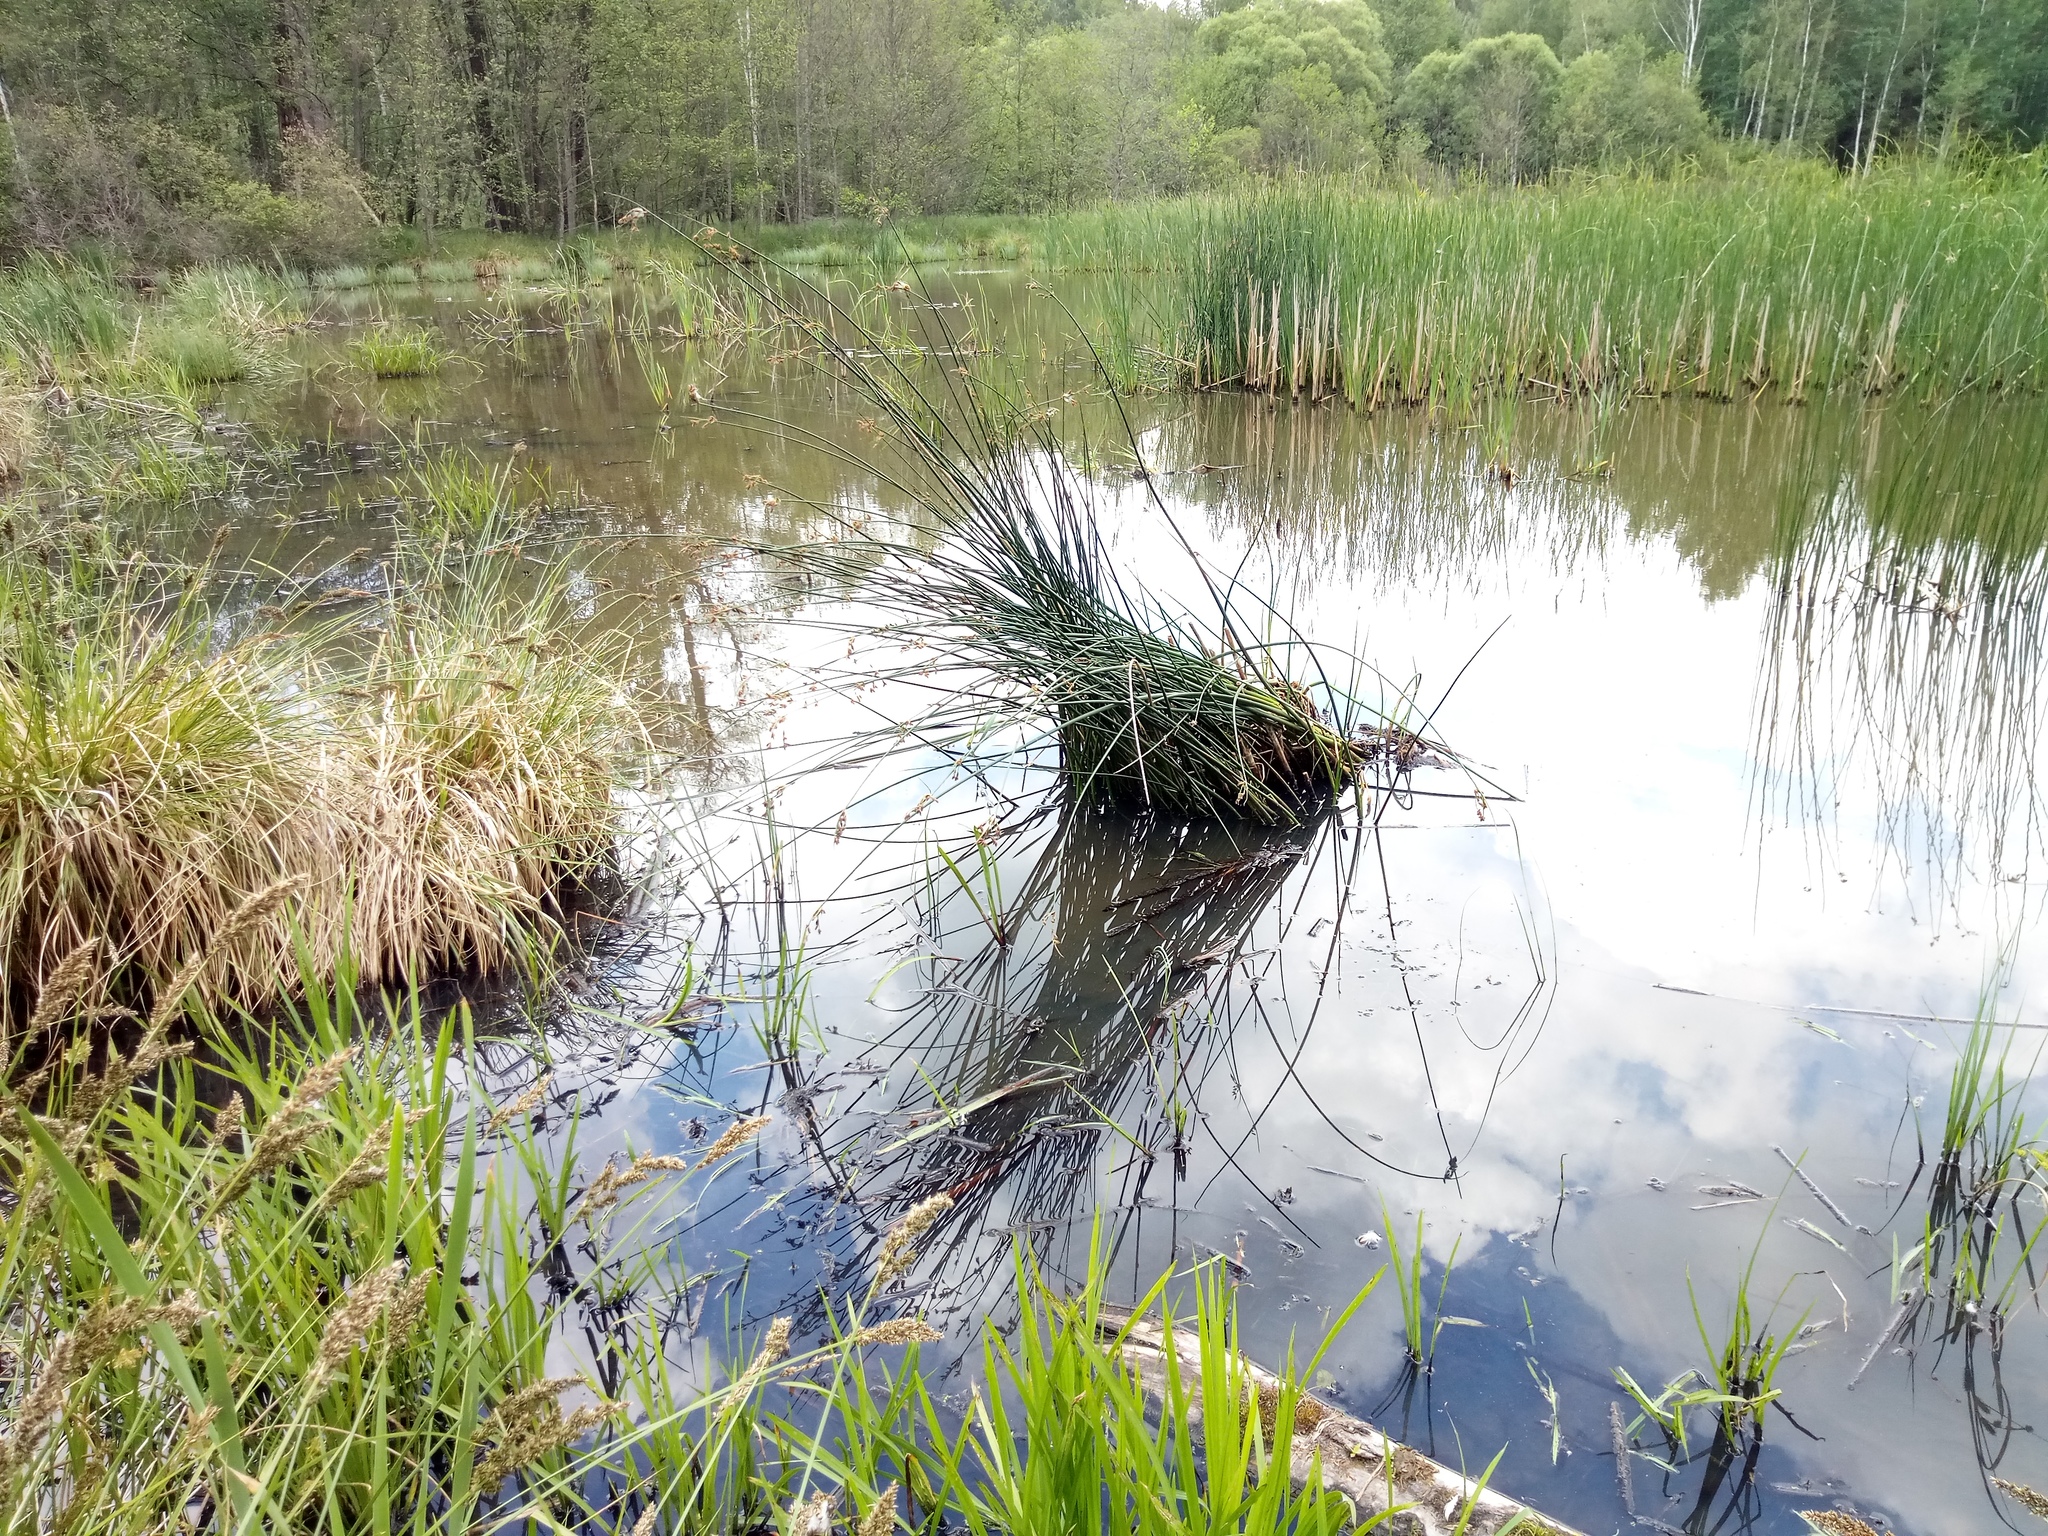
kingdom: Plantae
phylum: Tracheophyta
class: Liliopsida
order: Poales
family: Cyperaceae
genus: Schoenoplectus
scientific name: Schoenoplectus lacustris
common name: Common club-rush
